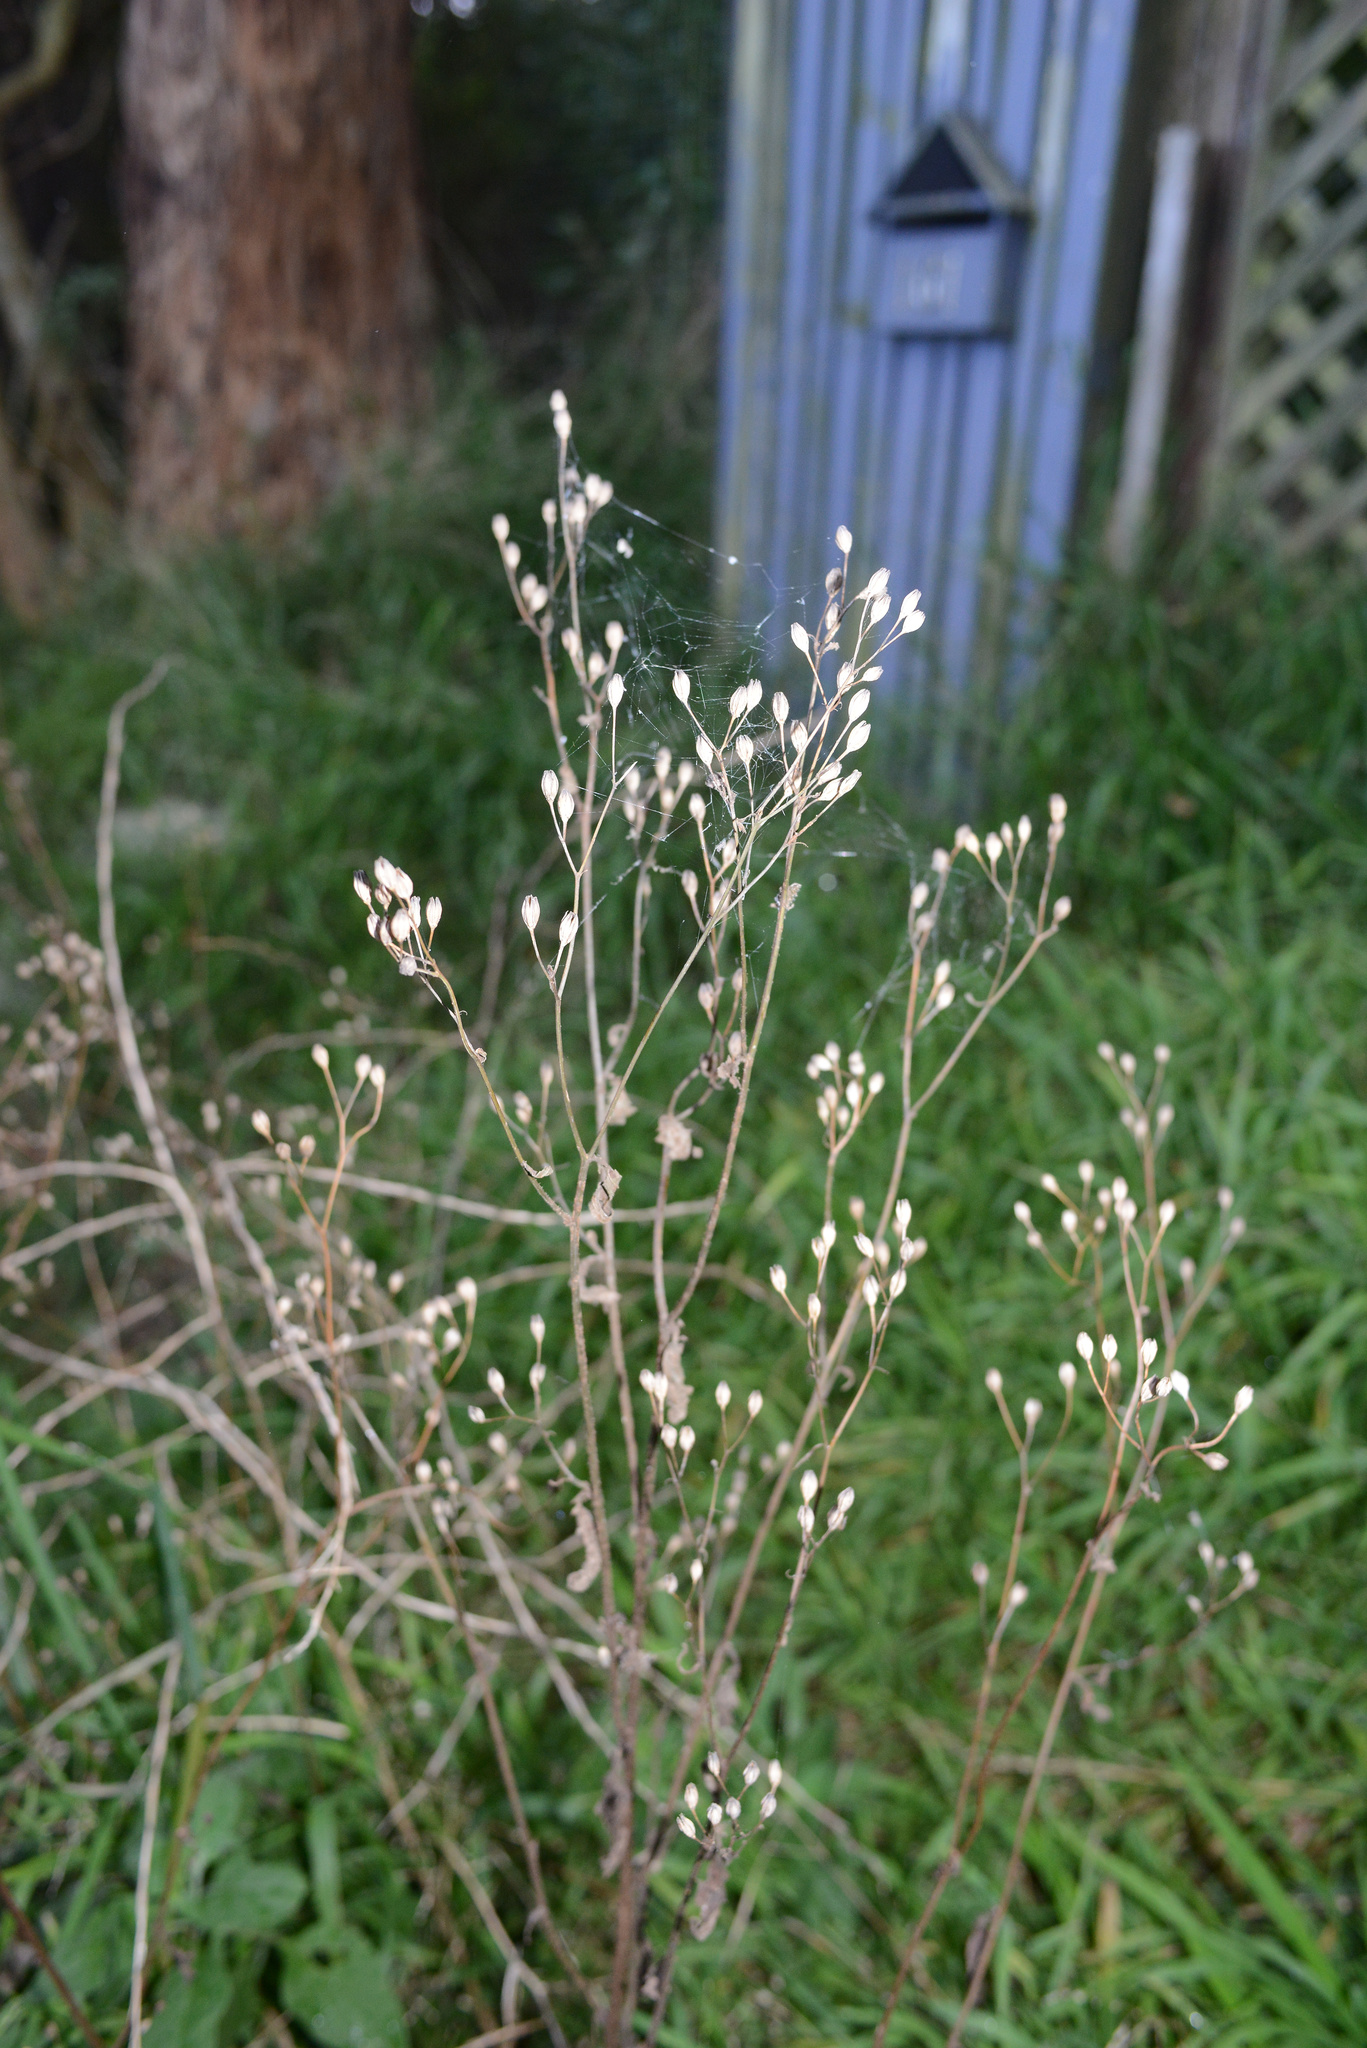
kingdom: Plantae
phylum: Tracheophyta
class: Magnoliopsida
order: Asterales
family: Asteraceae
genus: Lapsana
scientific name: Lapsana communis
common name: Nipplewort
